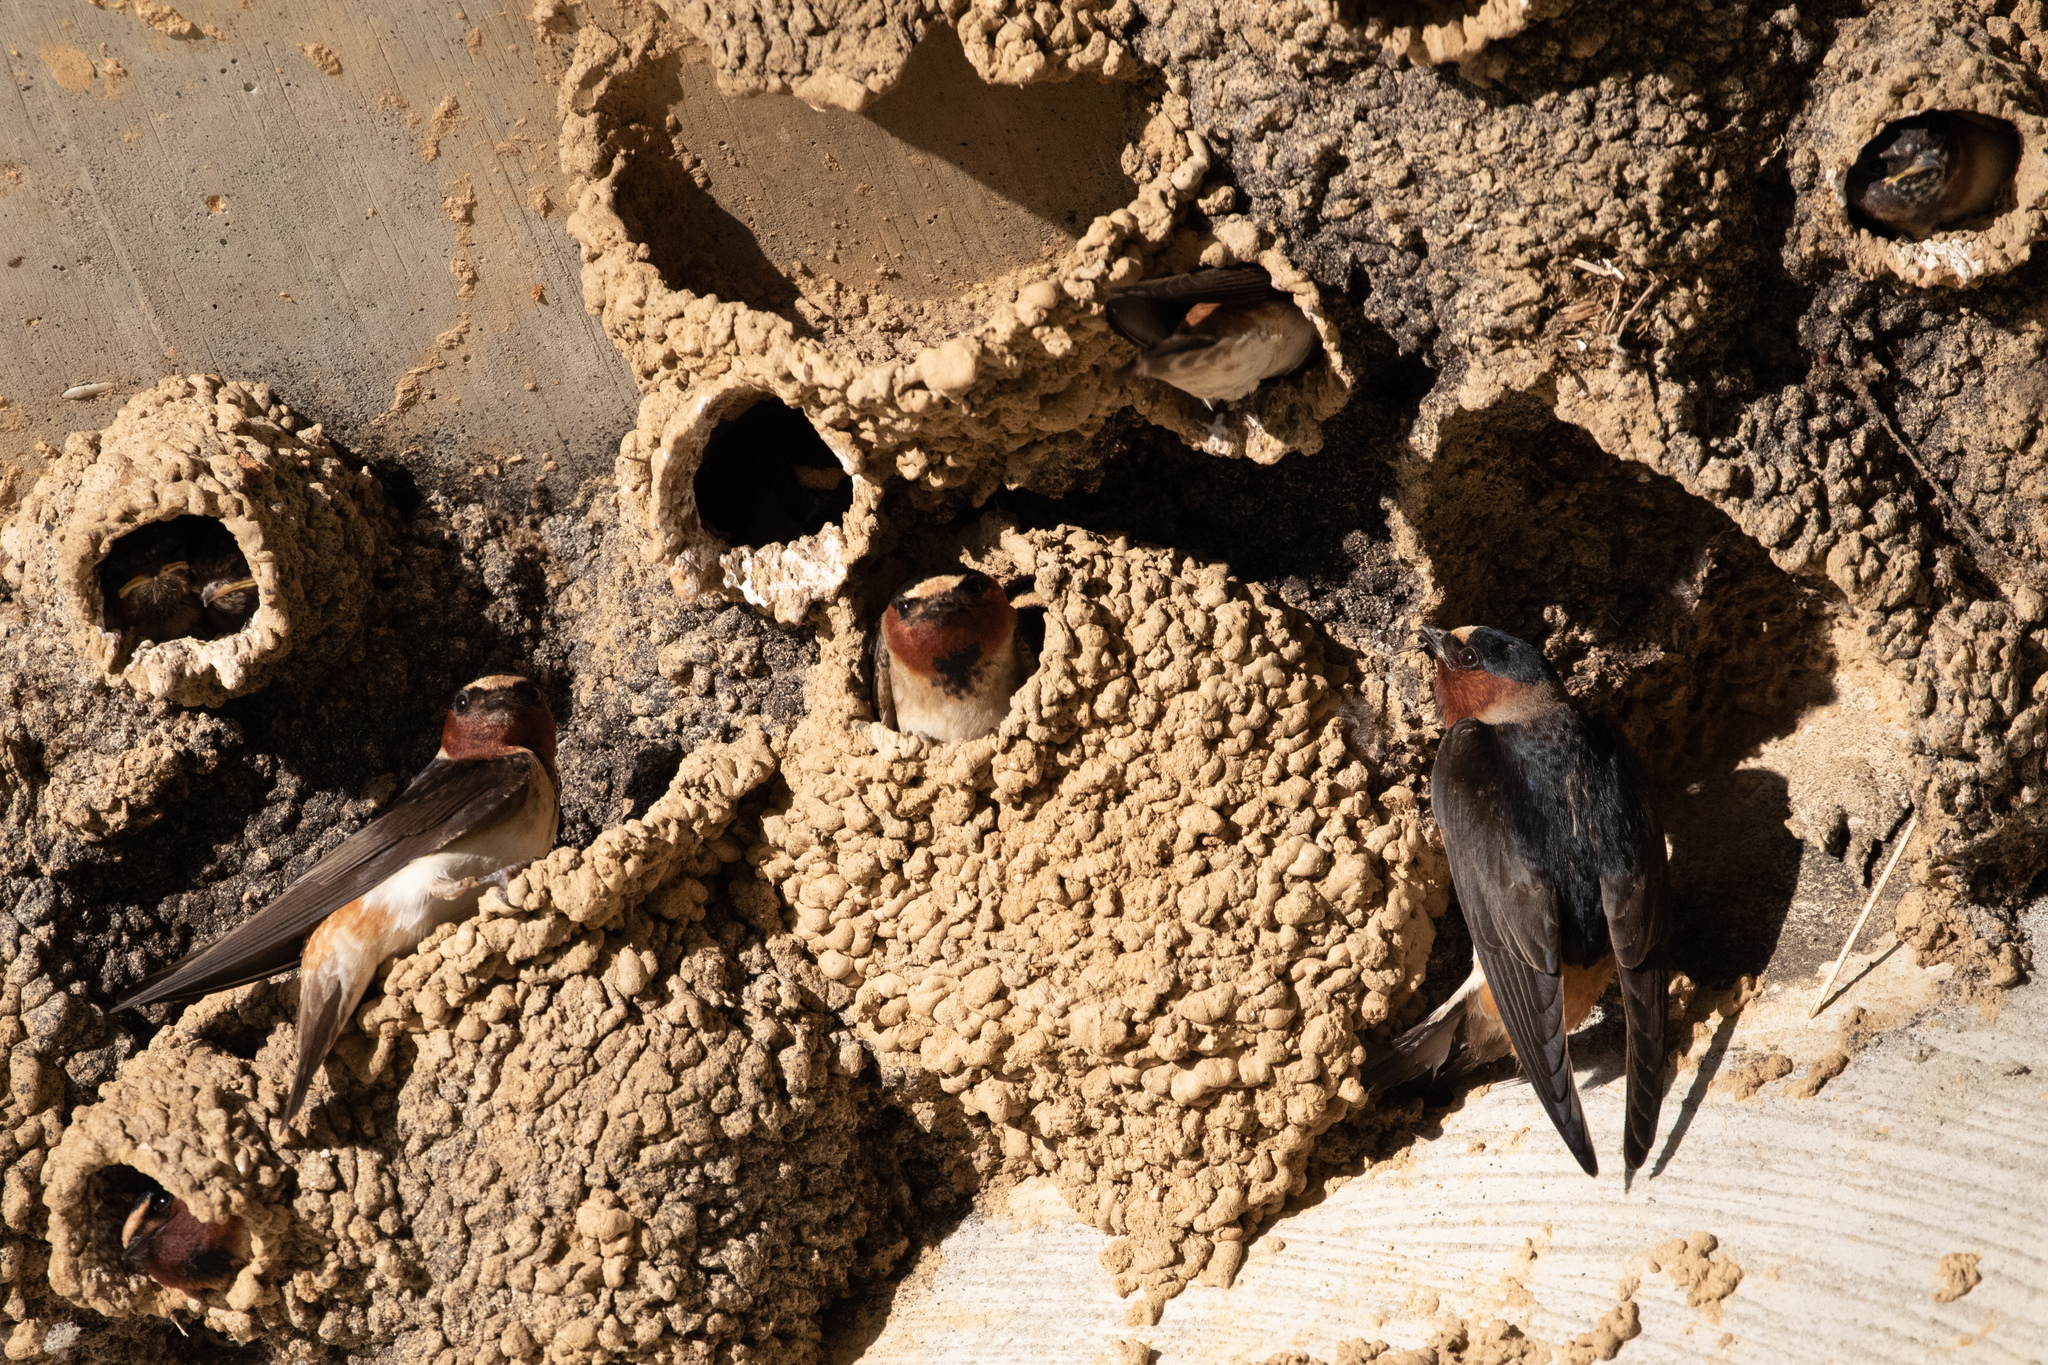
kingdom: Animalia
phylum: Chordata
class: Aves
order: Passeriformes
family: Hirundinidae
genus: Petrochelidon
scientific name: Petrochelidon pyrrhonota
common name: American cliff swallow
